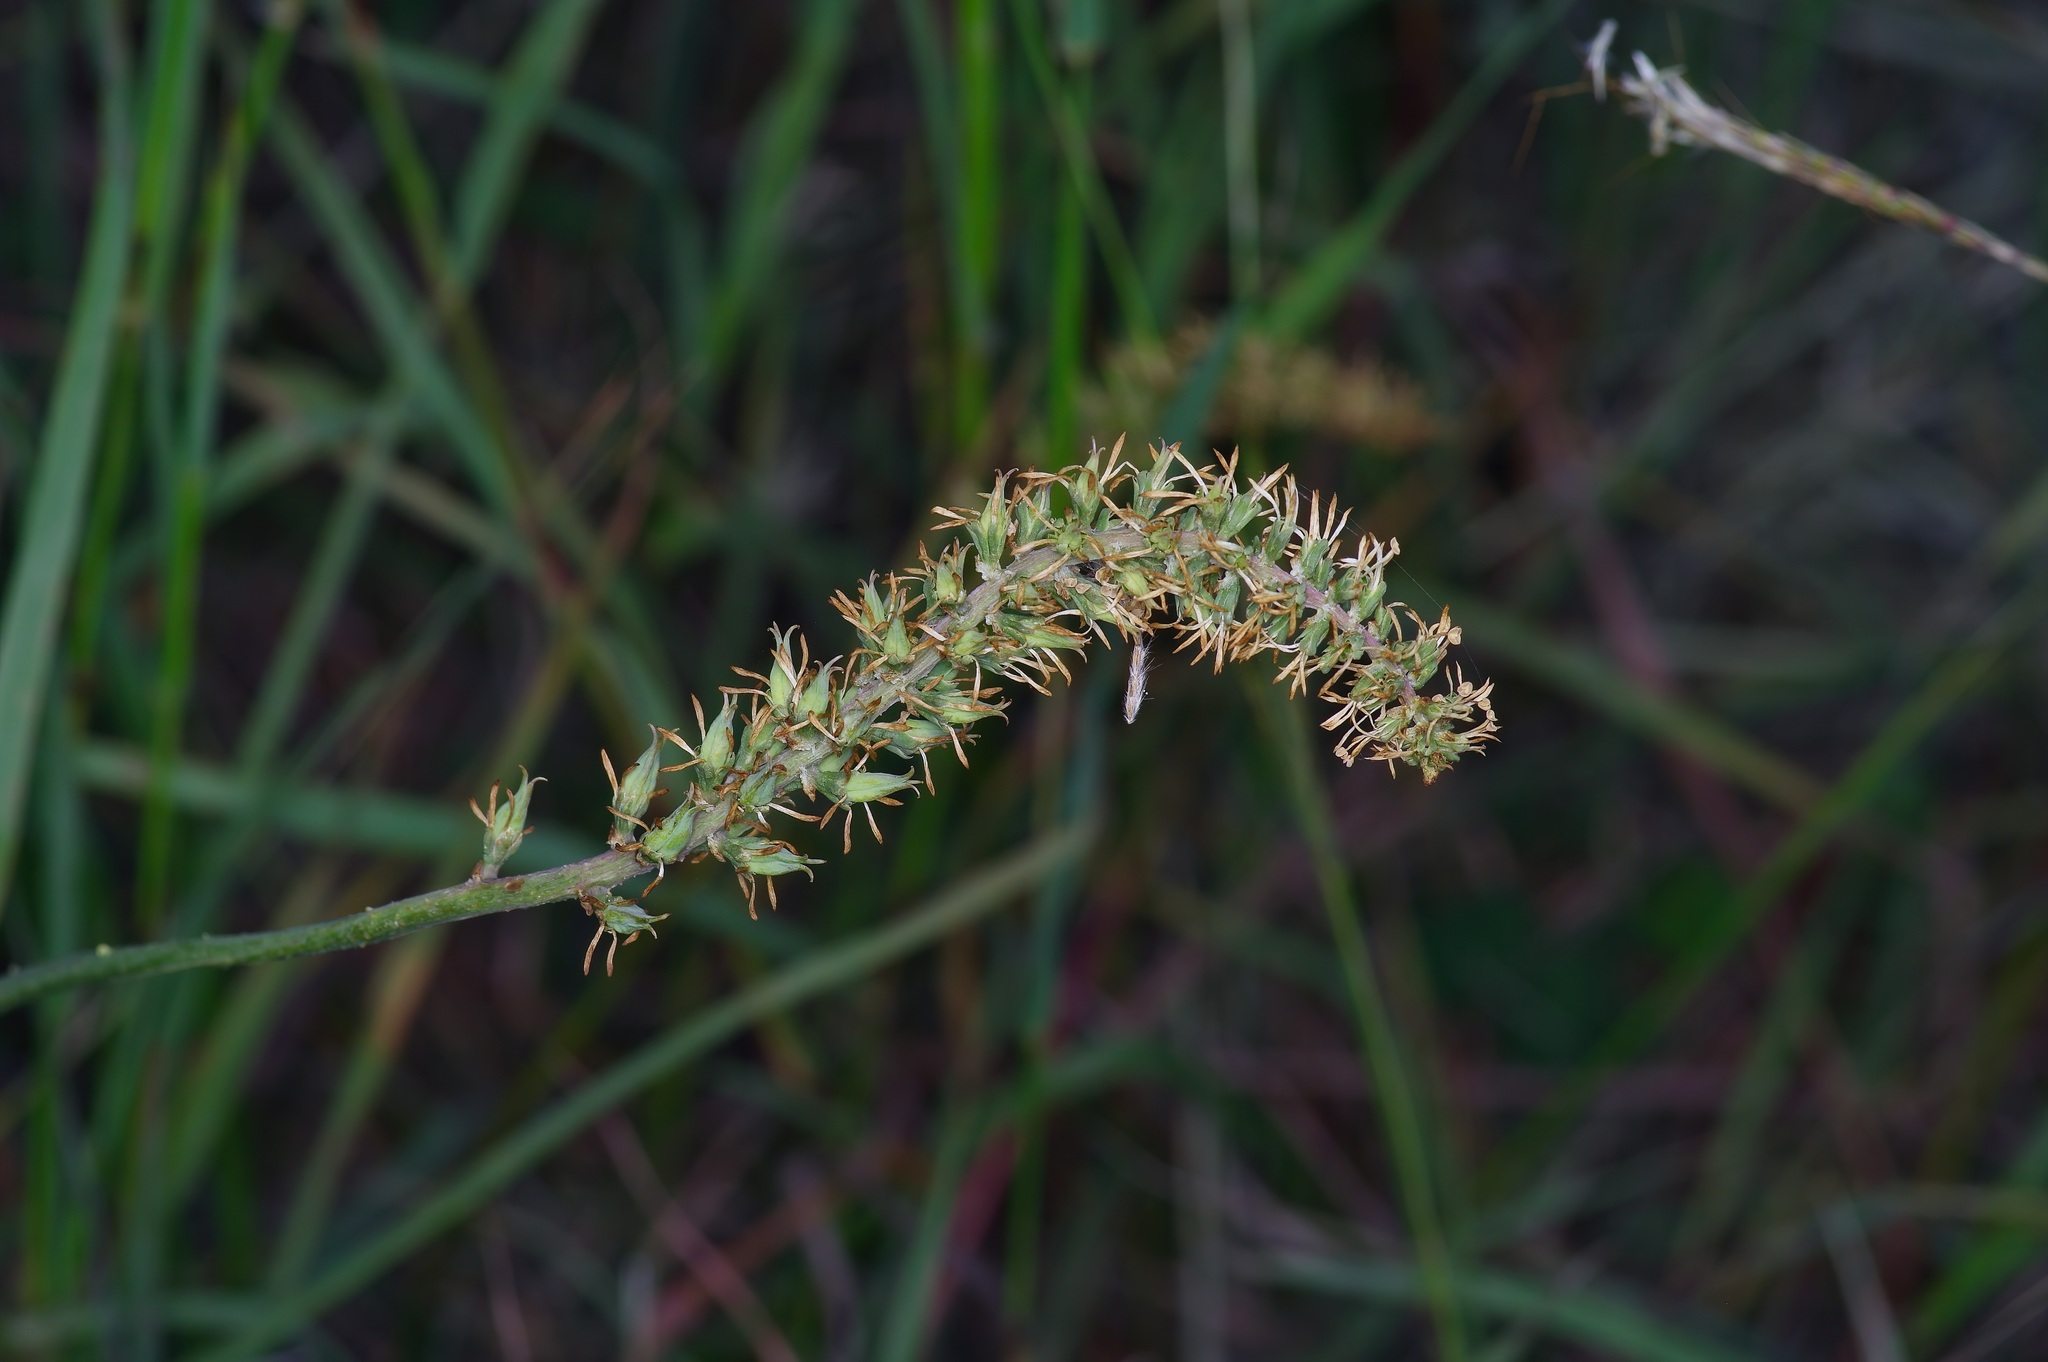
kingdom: Plantae
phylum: Tracheophyta
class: Liliopsida
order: Liliales
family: Melanthiaceae
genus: Schoenocaulon
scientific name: Schoenocaulon ghiesbreghtii
